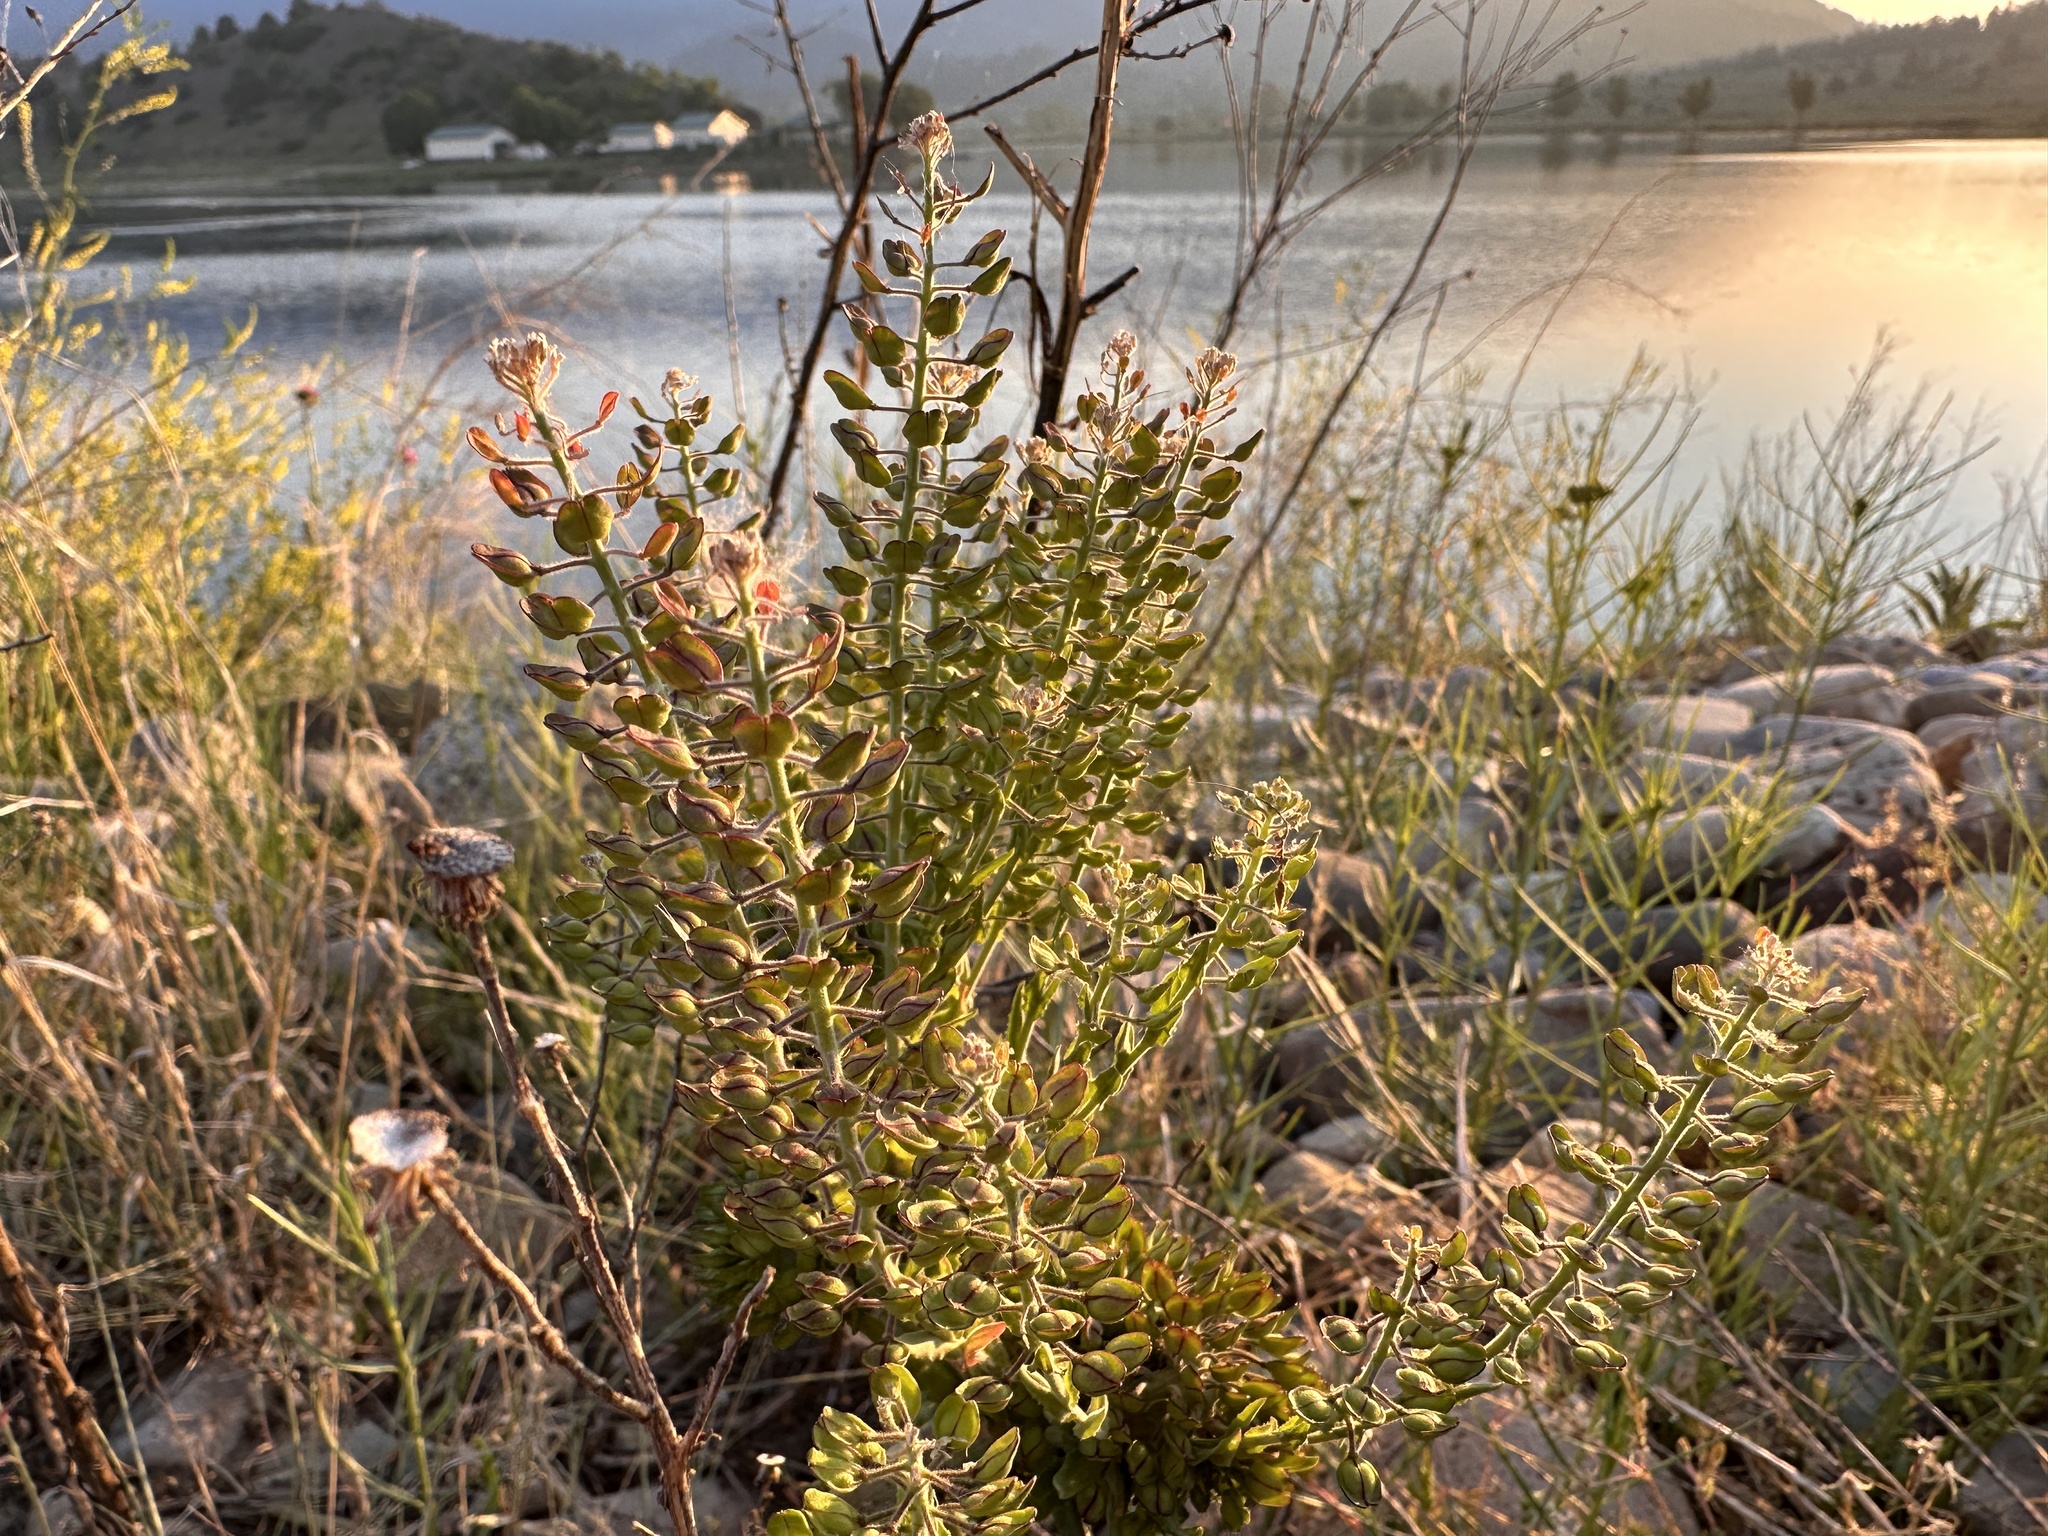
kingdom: Plantae
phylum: Tracheophyta
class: Magnoliopsida
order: Brassicales
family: Brassicaceae
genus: Lepidium
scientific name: Lepidium campestre
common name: Field pepperwort
